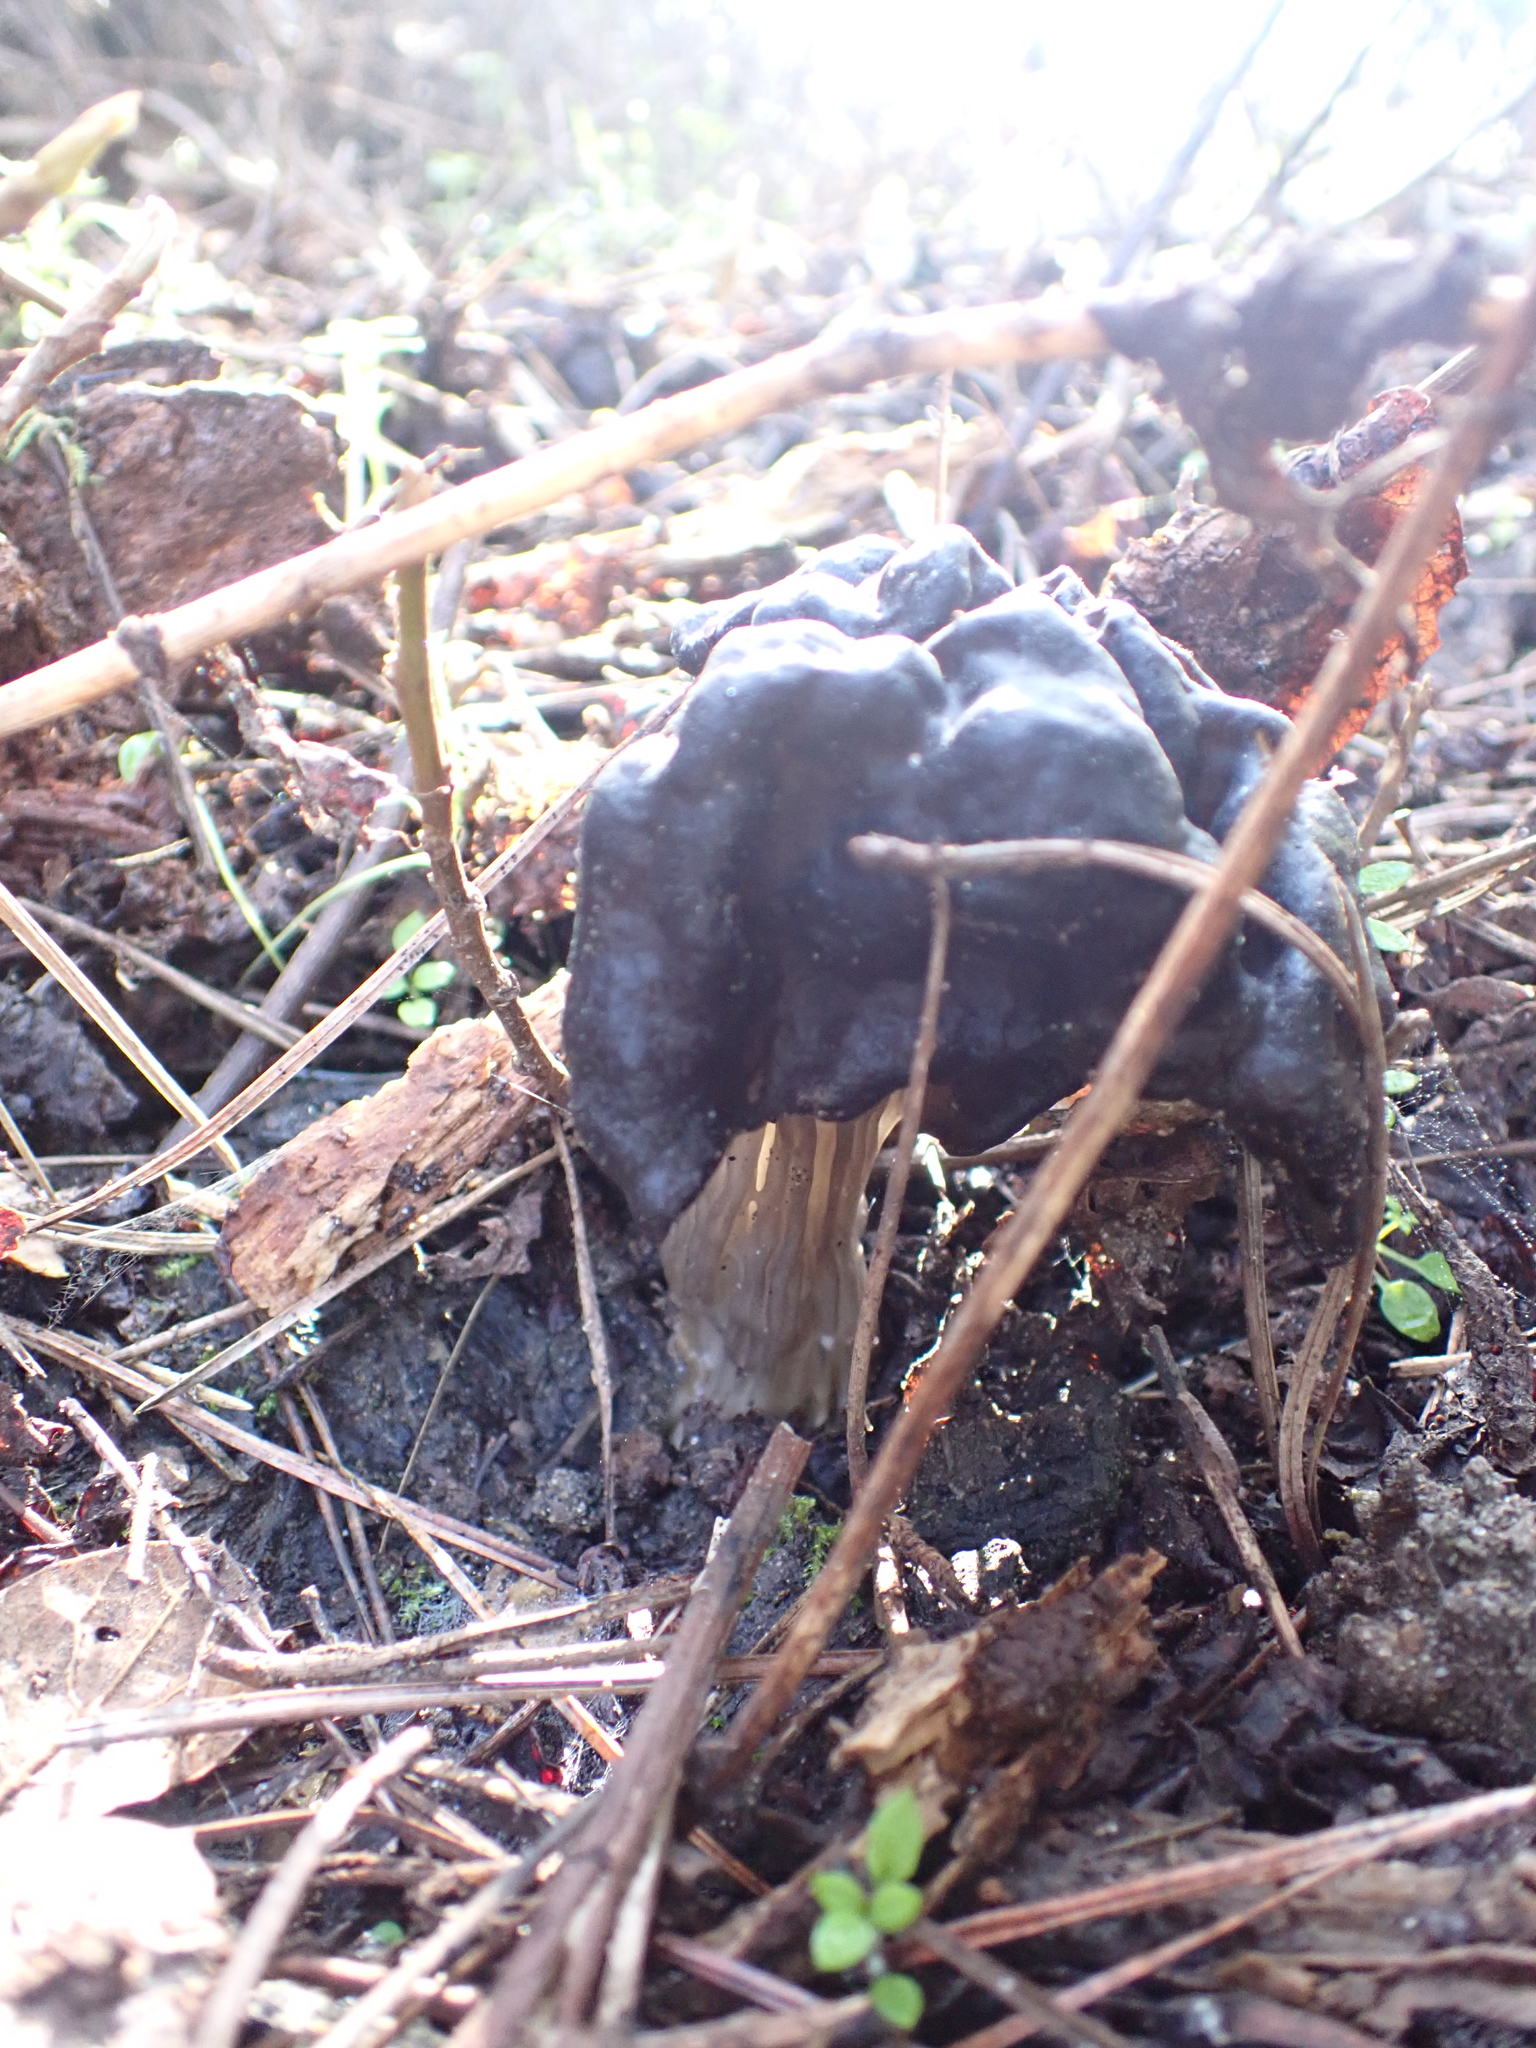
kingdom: Fungi
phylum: Ascomycota
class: Pezizomycetes
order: Pezizales
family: Helvellaceae
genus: Helvella
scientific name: Helvella vespertina
